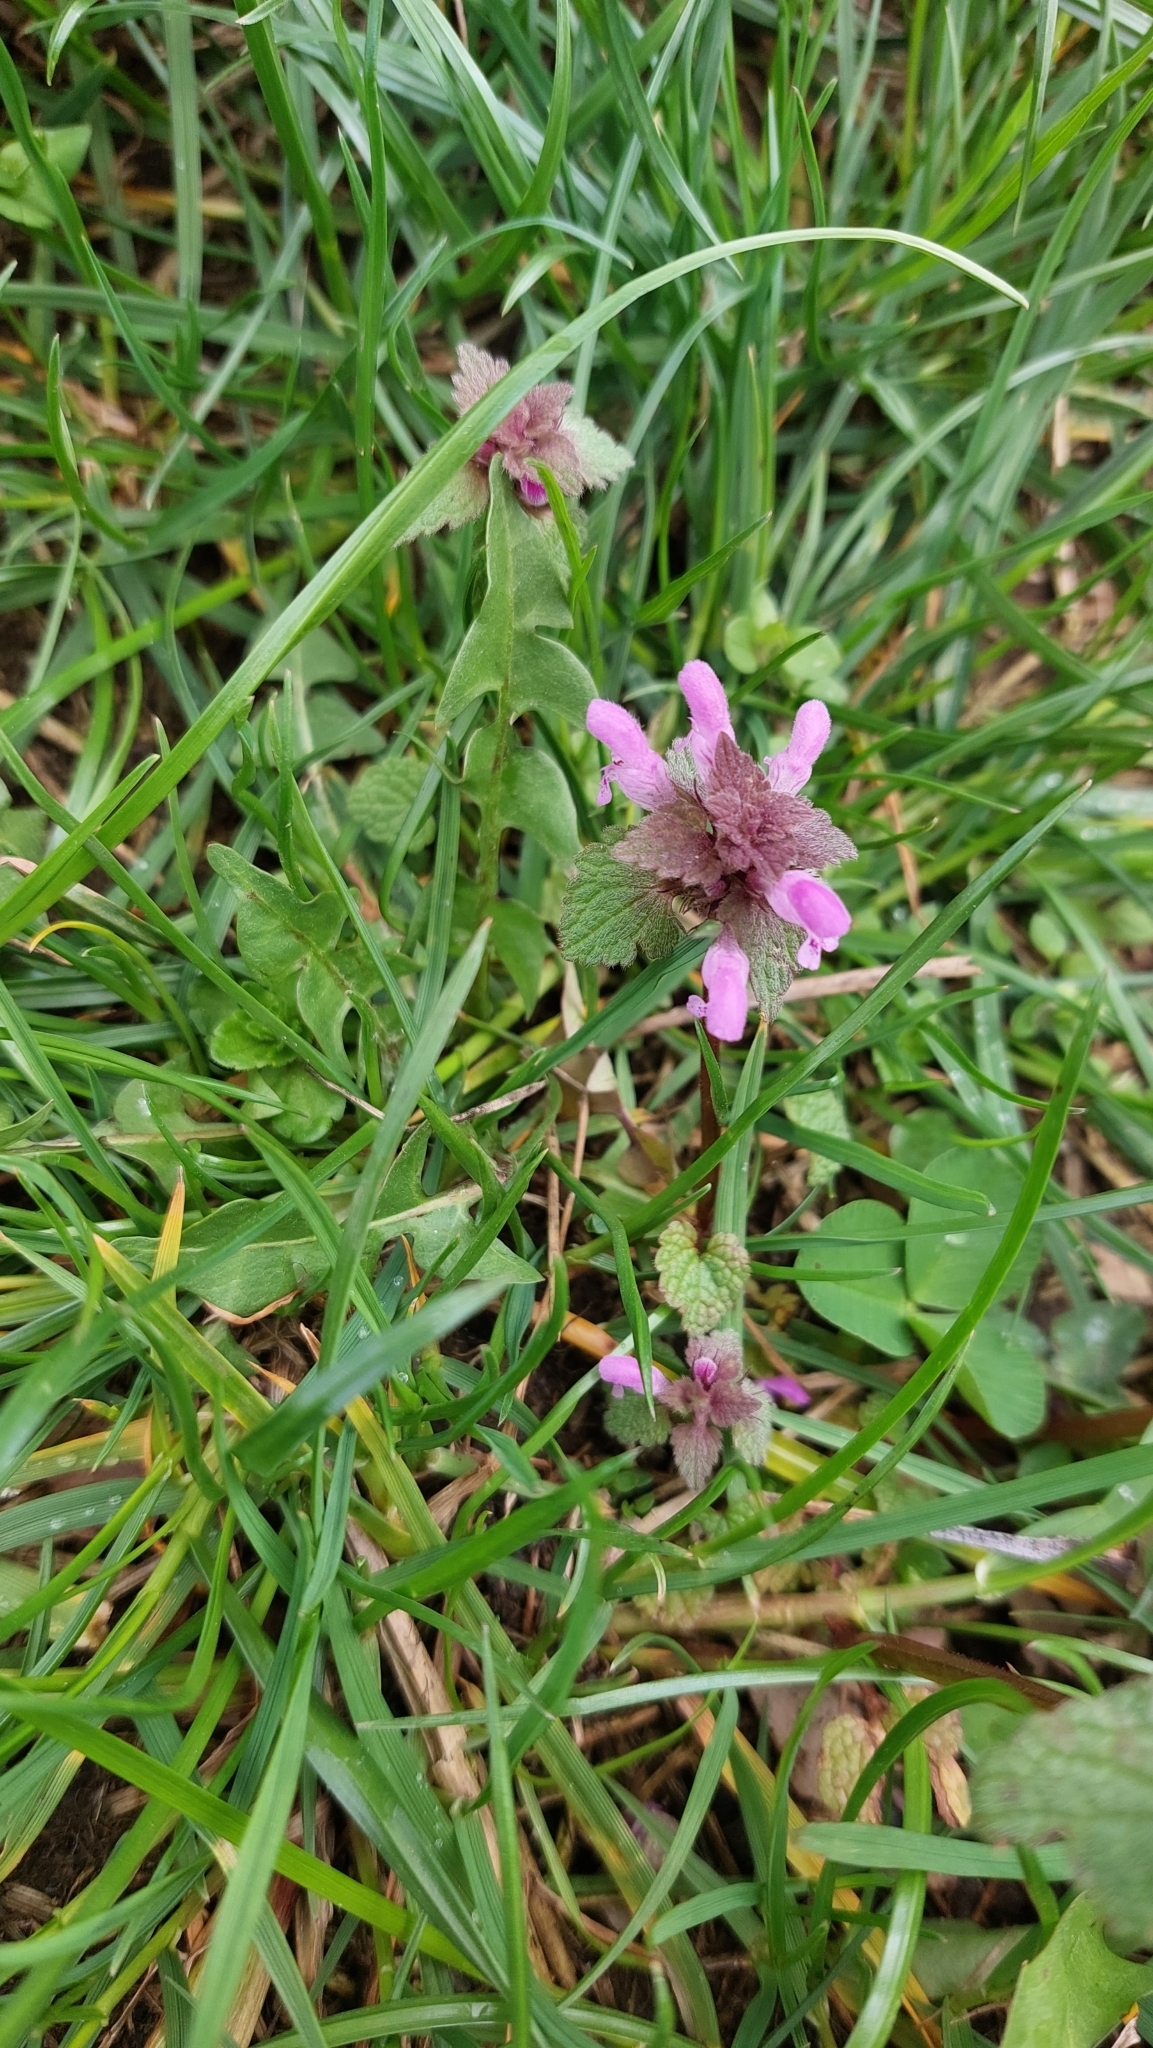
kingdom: Plantae
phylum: Tracheophyta
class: Magnoliopsida
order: Lamiales
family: Lamiaceae
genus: Lamium
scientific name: Lamium purpureum
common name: Red dead-nettle
